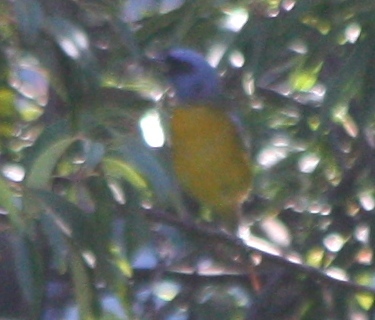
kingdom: Animalia
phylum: Chordata
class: Aves
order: Passeriformes
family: Thraupidae
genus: Rauenia
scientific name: Rauenia bonariensis
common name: Blue-and-yellow tanager
